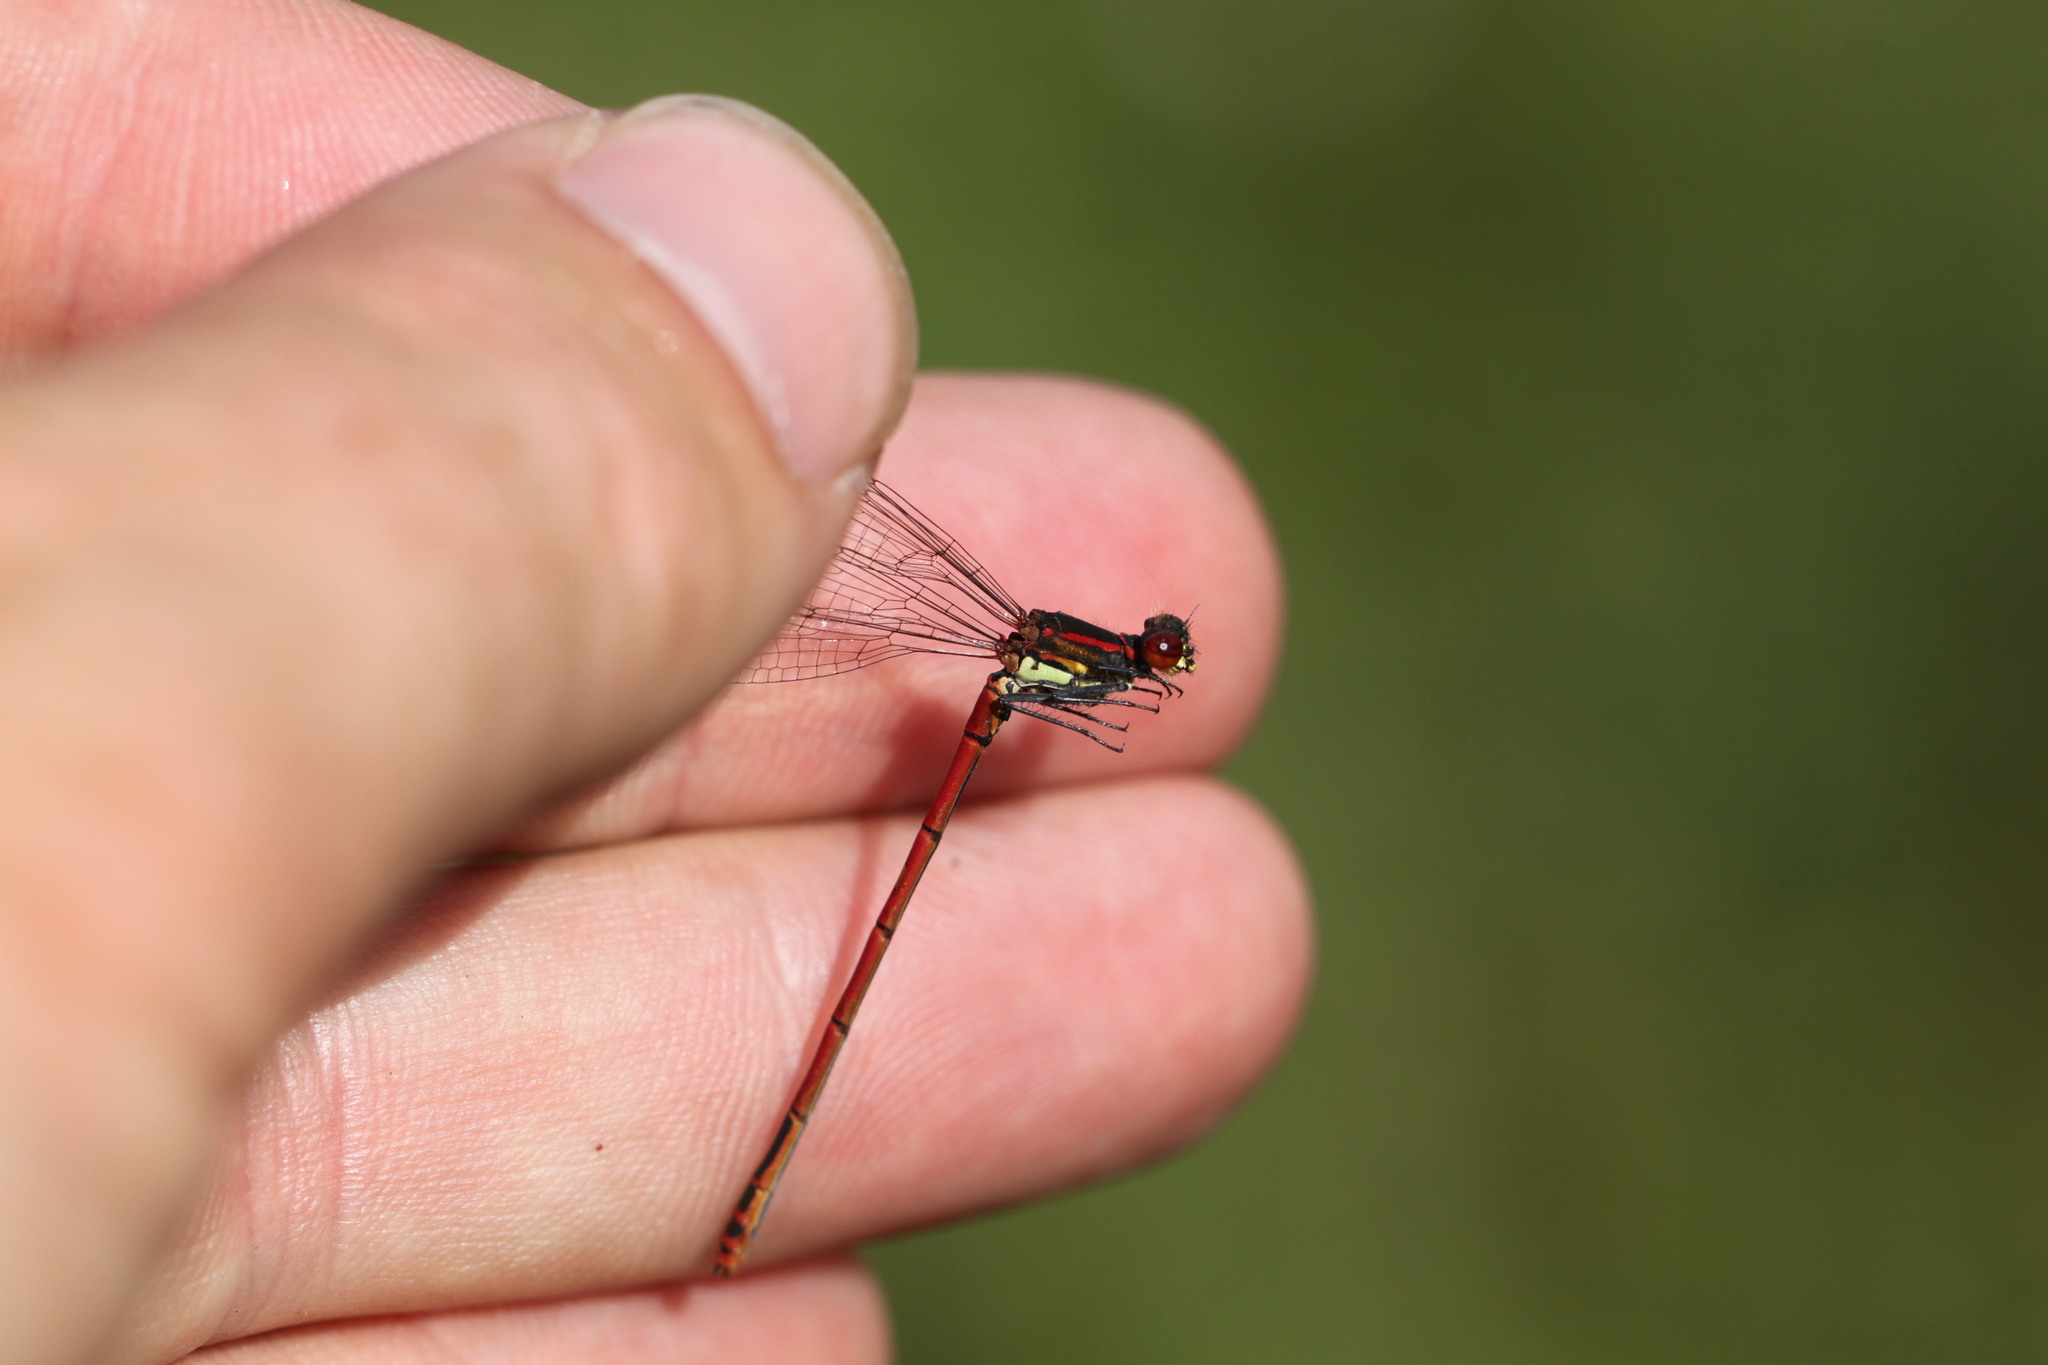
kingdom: Animalia
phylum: Arthropoda
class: Insecta
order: Odonata
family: Coenagrionidae
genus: Pyrrhosoma
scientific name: Pyrrhosoma nymphula
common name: Large red damsel
